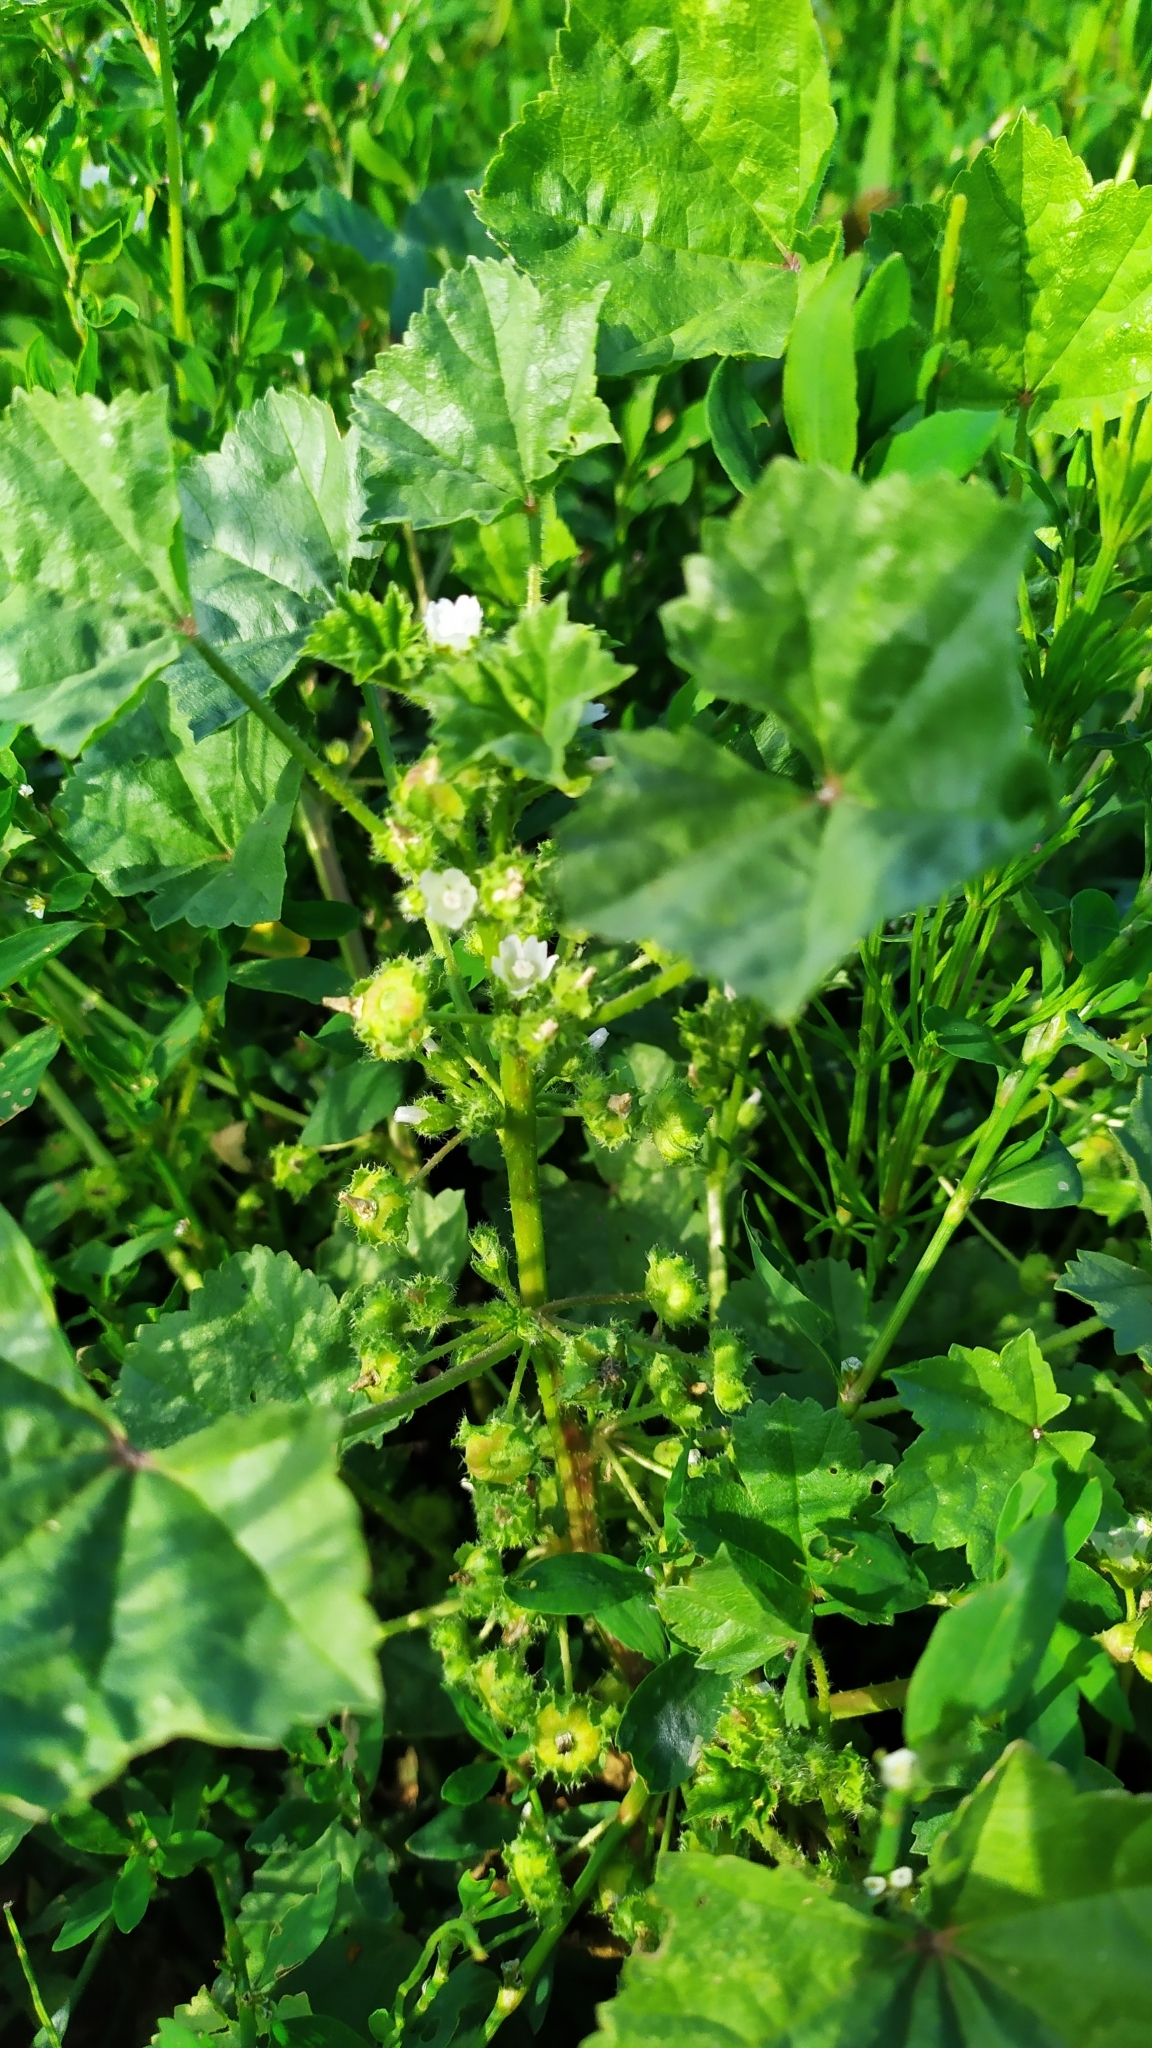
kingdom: Plantae
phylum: Tracheophyta
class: Magnoliopsida
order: Malvales
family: Malvaceae
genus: Malva
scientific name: Malva pusilla
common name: Small mallow
